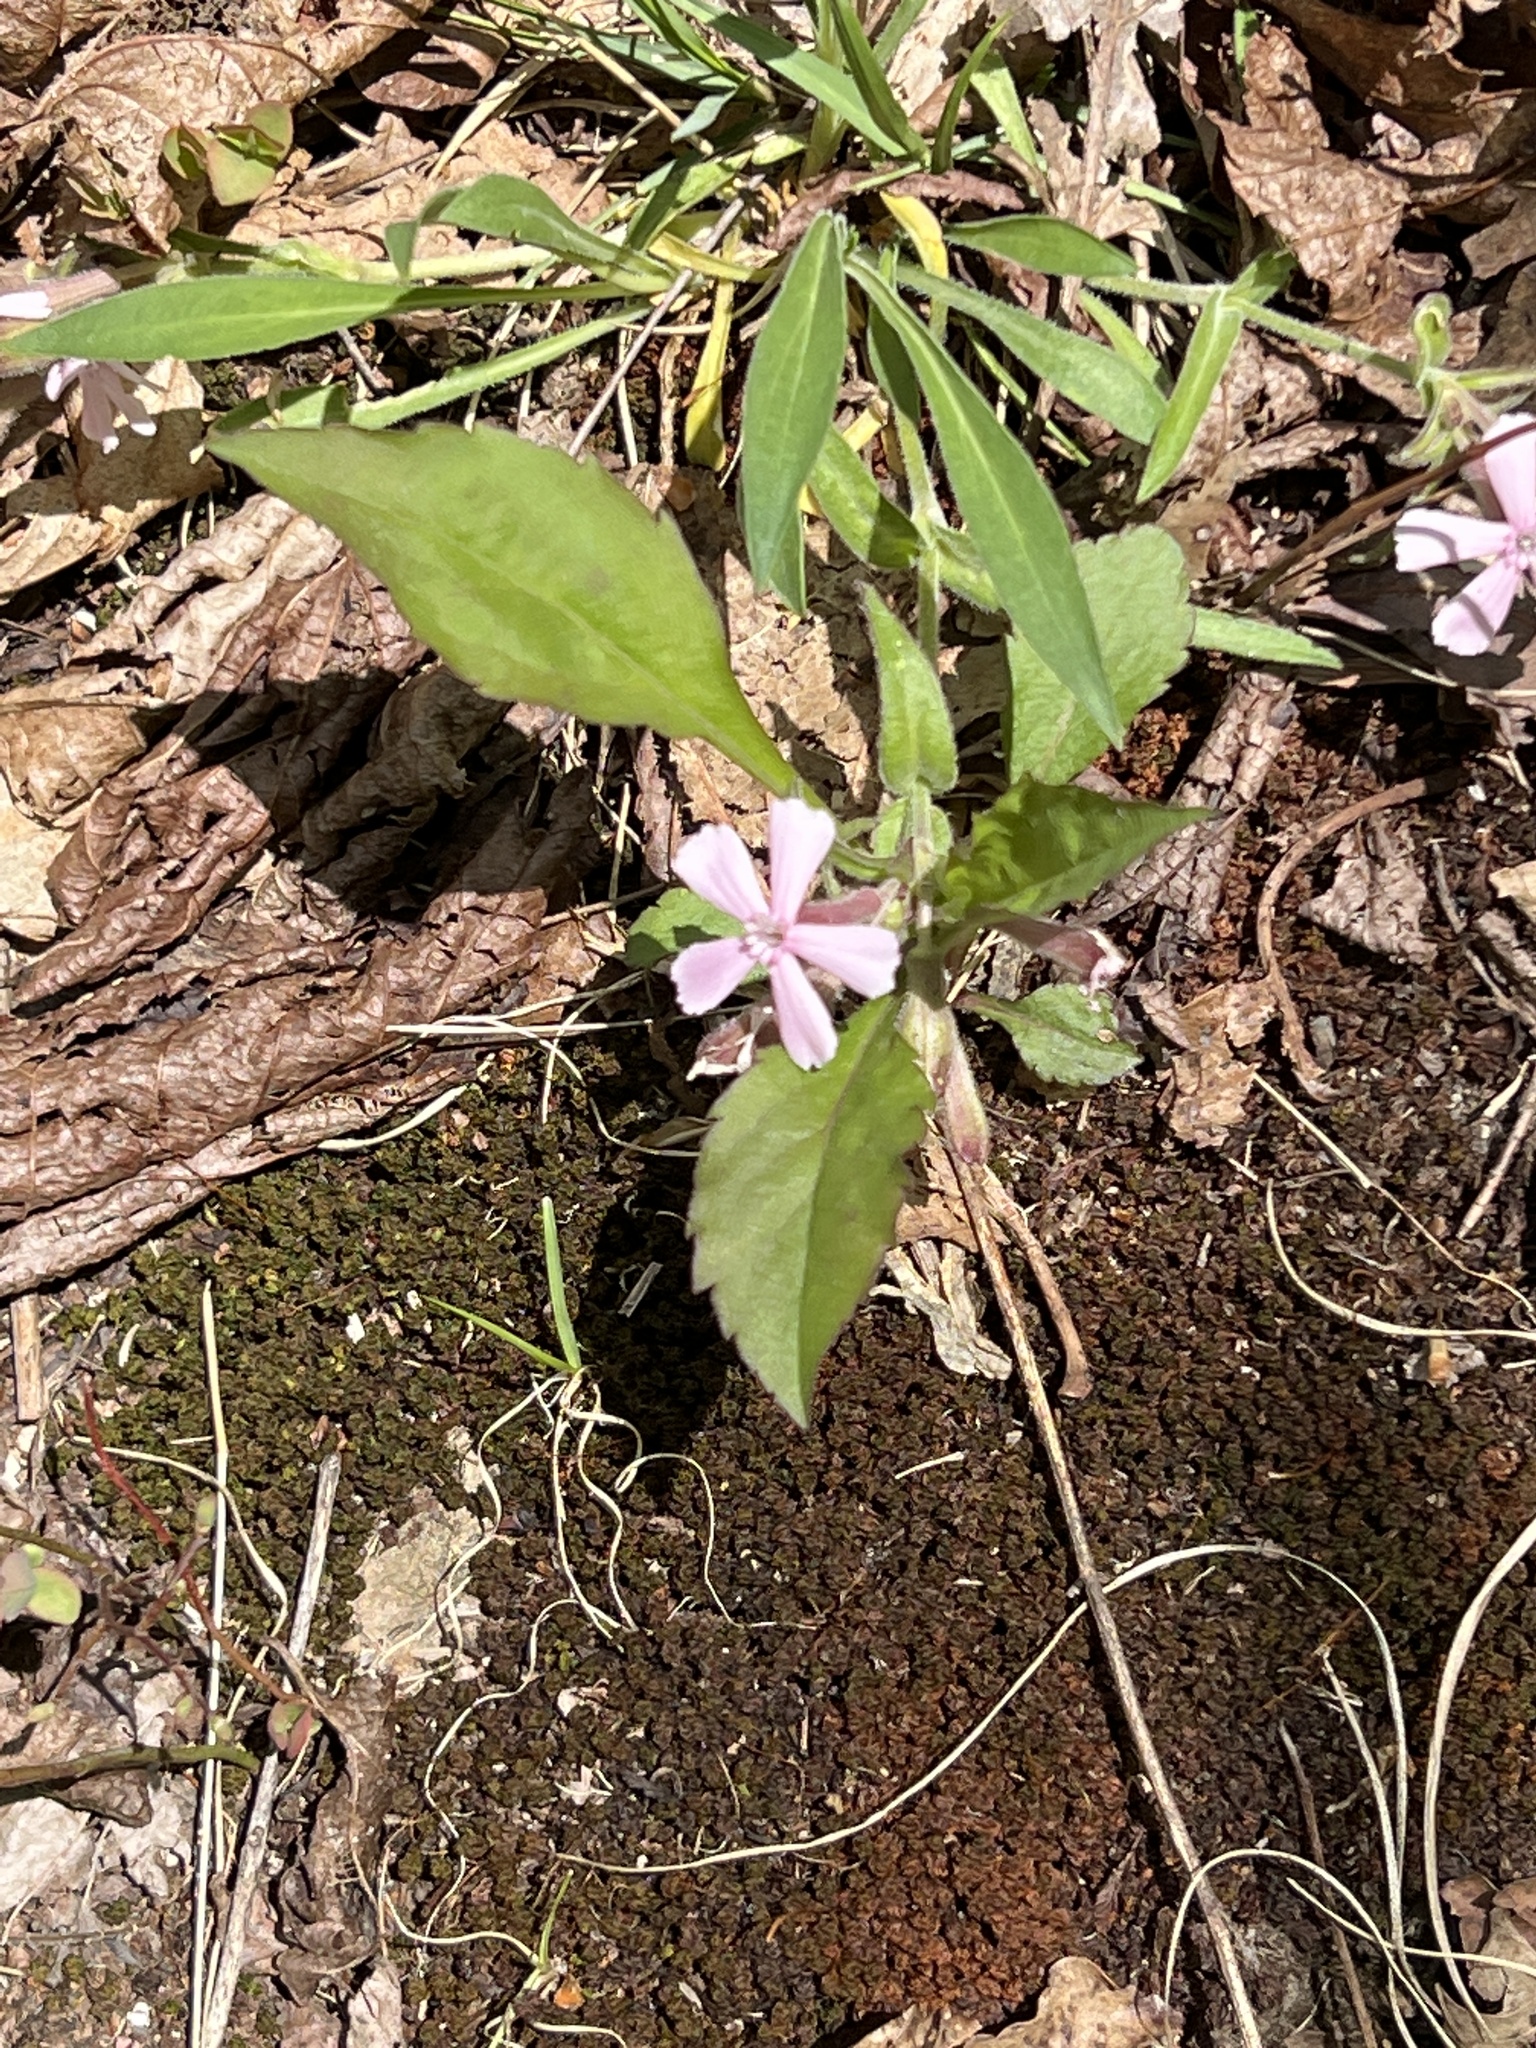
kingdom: Plantae
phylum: Tracheophyta
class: Magnoliopsida
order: Caryophyllales
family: Caryophyllaceae
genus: Silene
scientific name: Silene caroliniana
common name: Sticky catchfly
